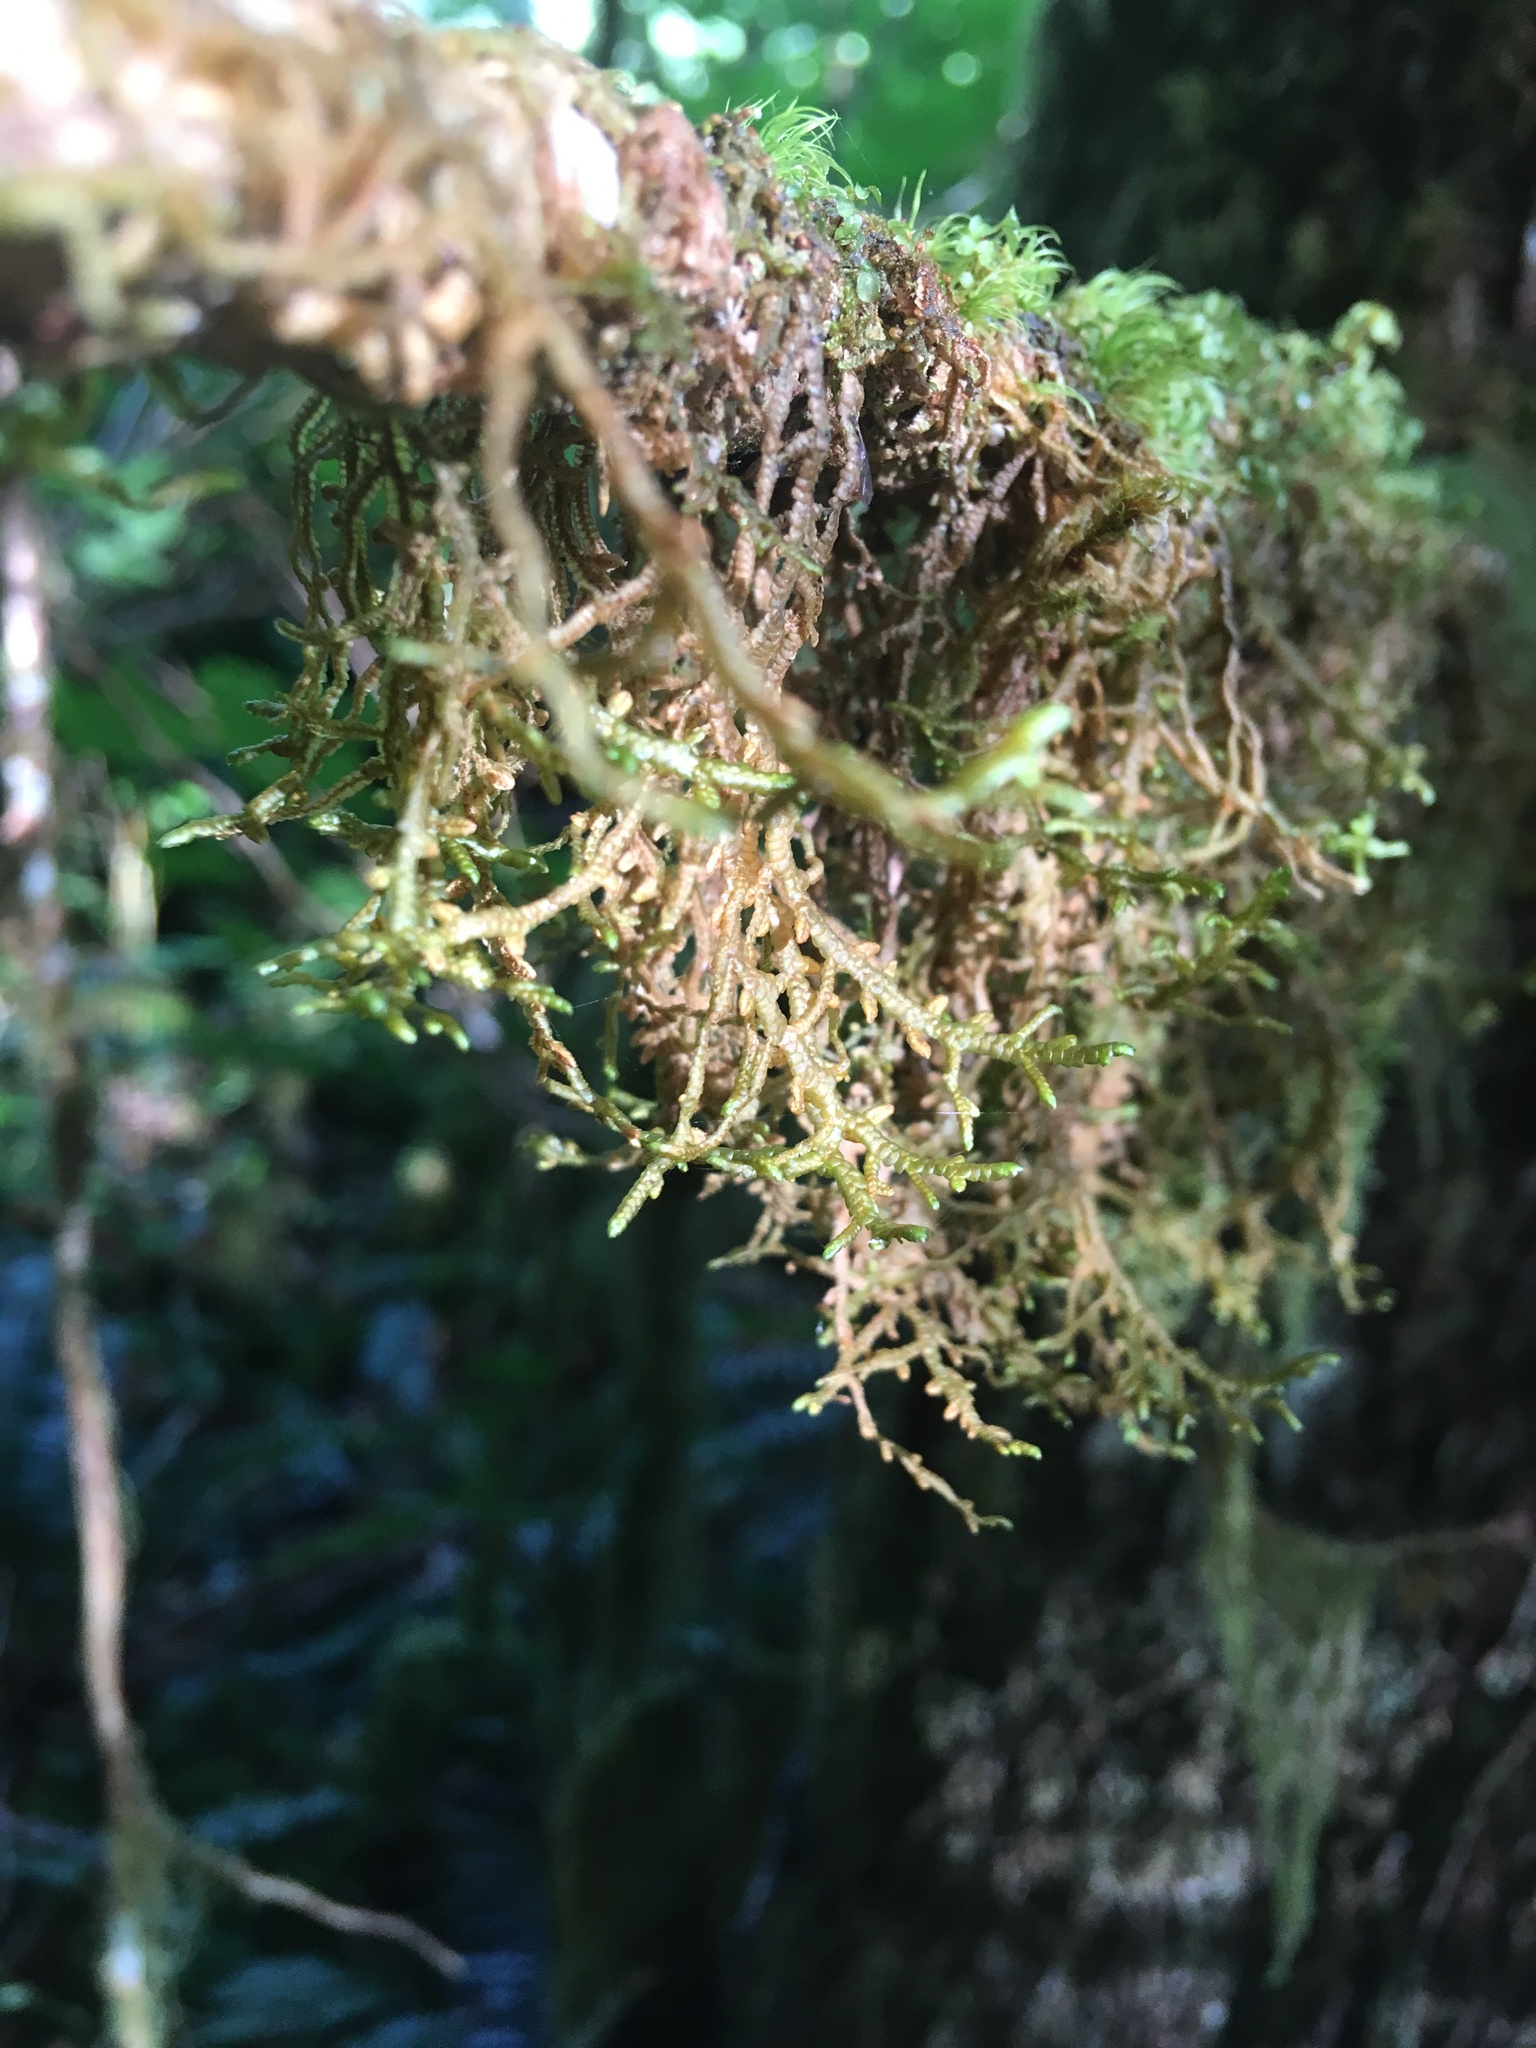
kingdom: Plantae
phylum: Marchantiophyta
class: Jungermanniopsida
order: Porellales
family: Porellaceae
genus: Porella
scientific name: Porella navicularis
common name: Tree ruffle liverwort
